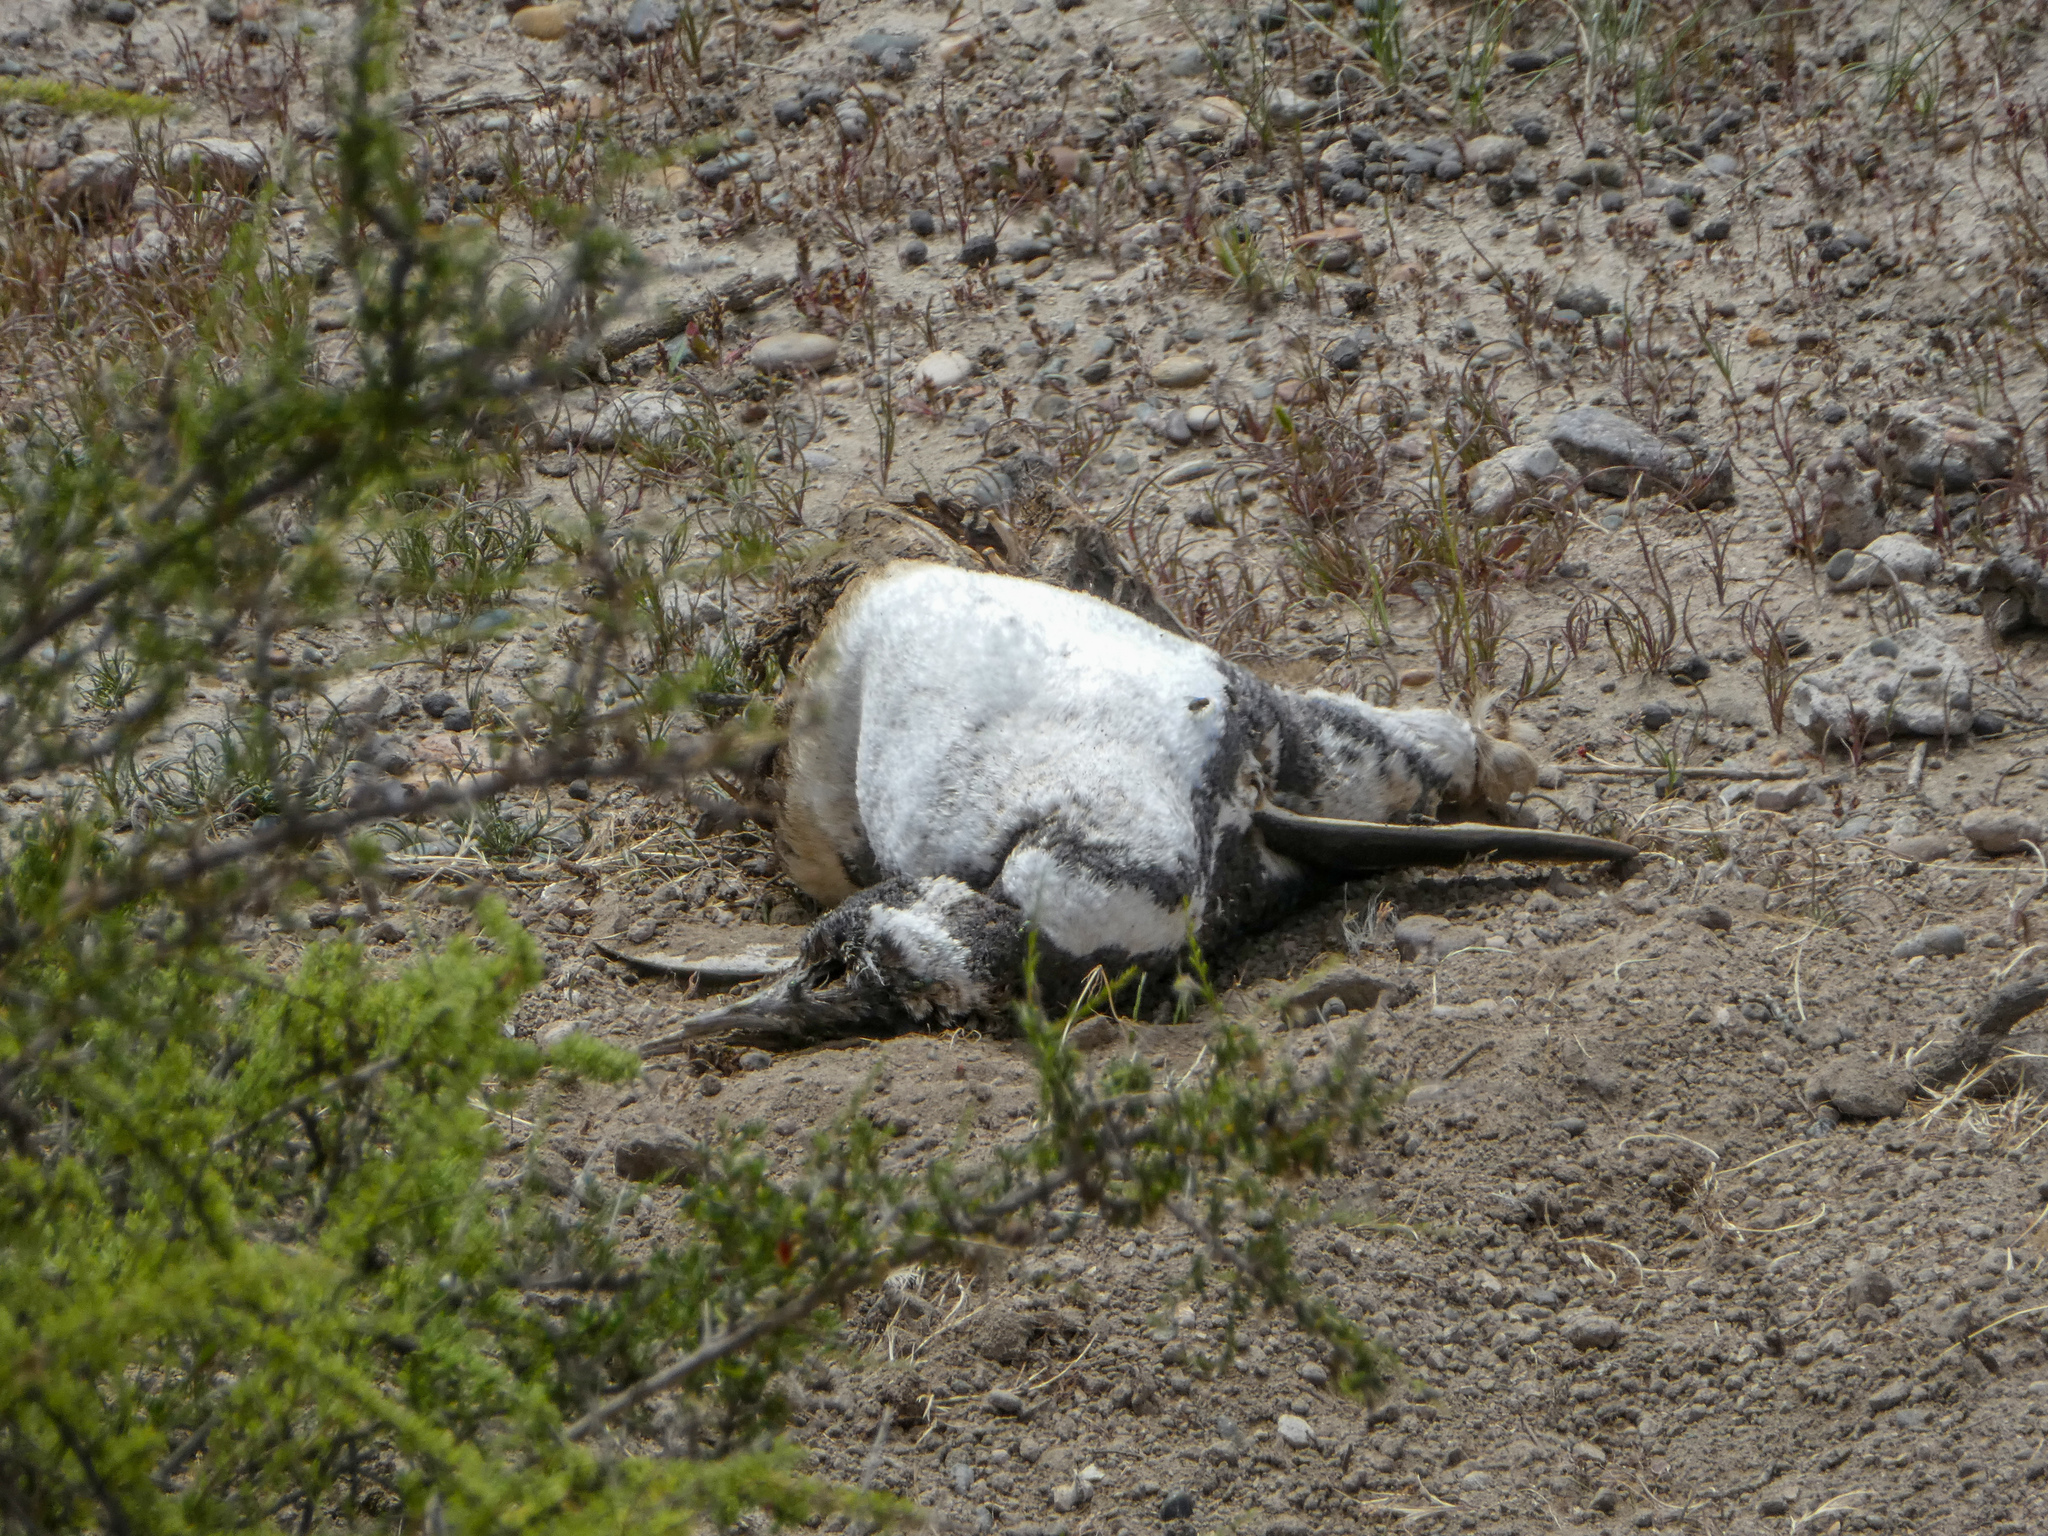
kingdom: Animalia
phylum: Chordata
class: Aves
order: Sphenisciformes
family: Spheniscidae
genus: Spheniscus
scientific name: Spheniscus magellanicus
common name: Magellanic penguin
